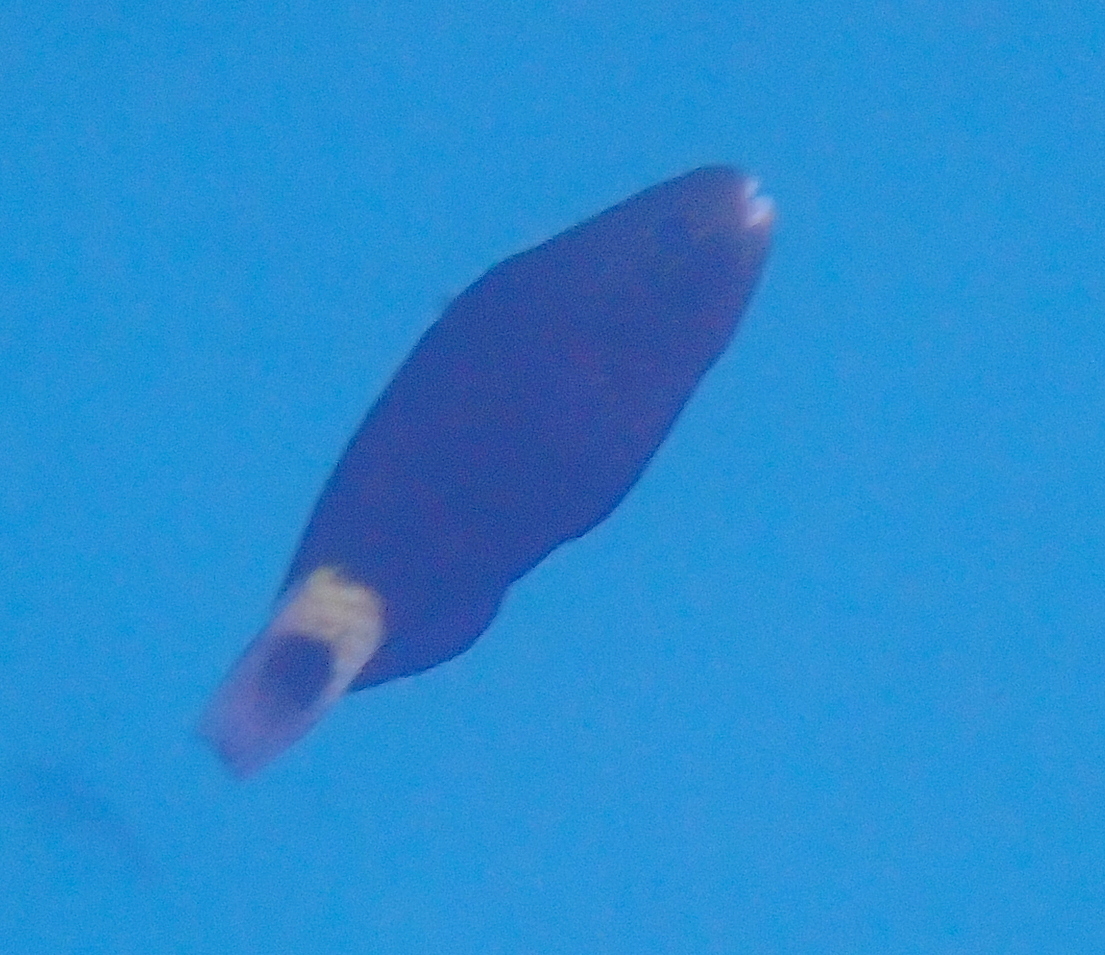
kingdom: Animalia
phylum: Chordata
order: Perciformes
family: Scaridae
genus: Chlorurus
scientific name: Chlorurus sordidus
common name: Bullethead parrotfish
